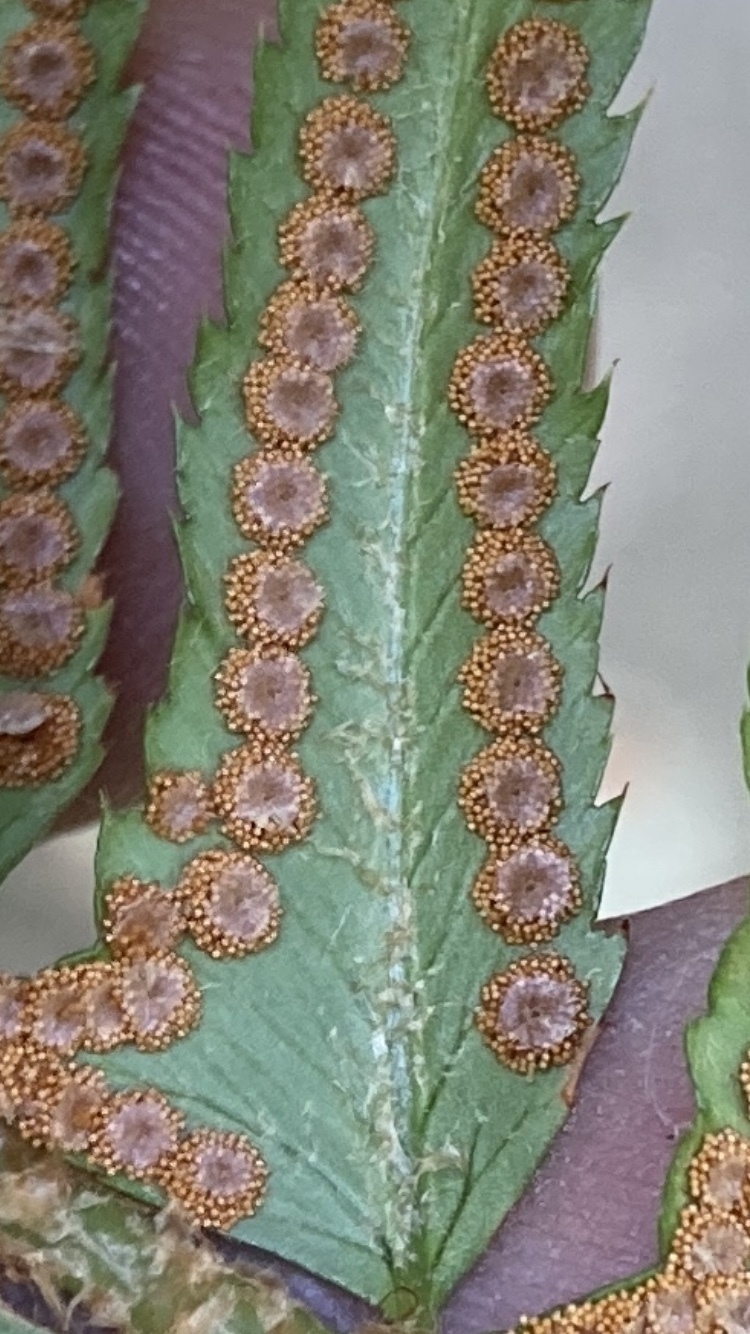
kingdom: Plantae
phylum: Tracheophyta
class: Polypodiopsida
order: Polypodiales
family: Dryopteridaceae
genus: Polystichum
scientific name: Polystichum munitum
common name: Western sword-fern
